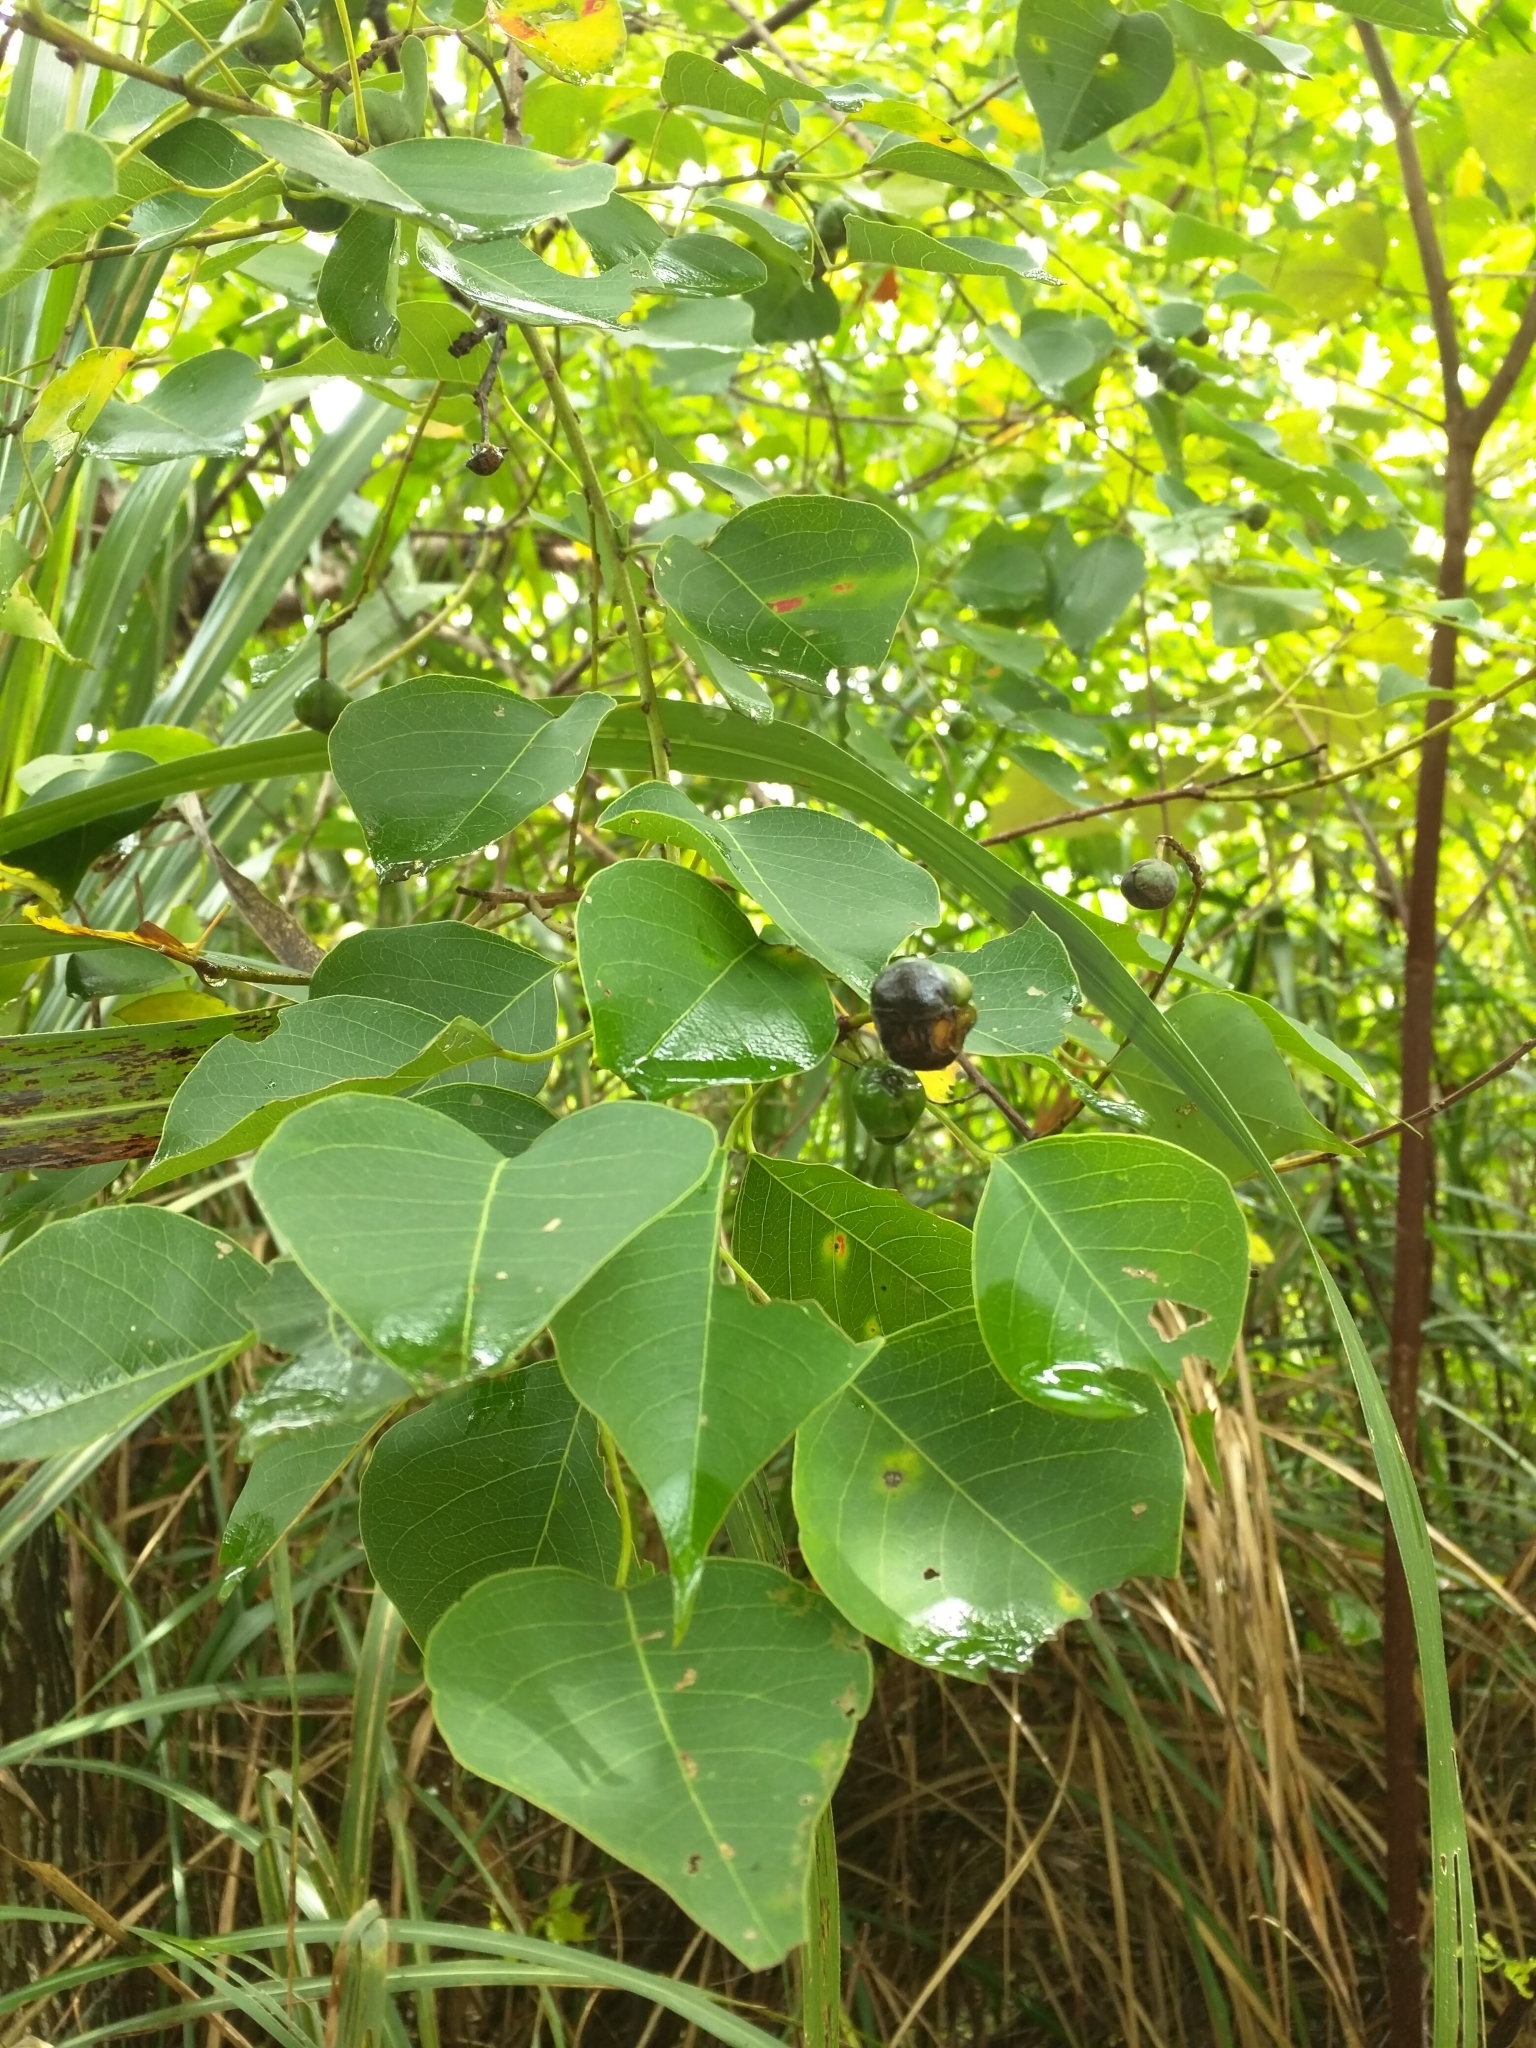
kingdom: Plantae
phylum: Tracheophyta
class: Magnoliopsida
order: Malpighiales
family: Euphorbiaceae
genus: Triadica
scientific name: Triadica sebifera
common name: Chinese tallow
